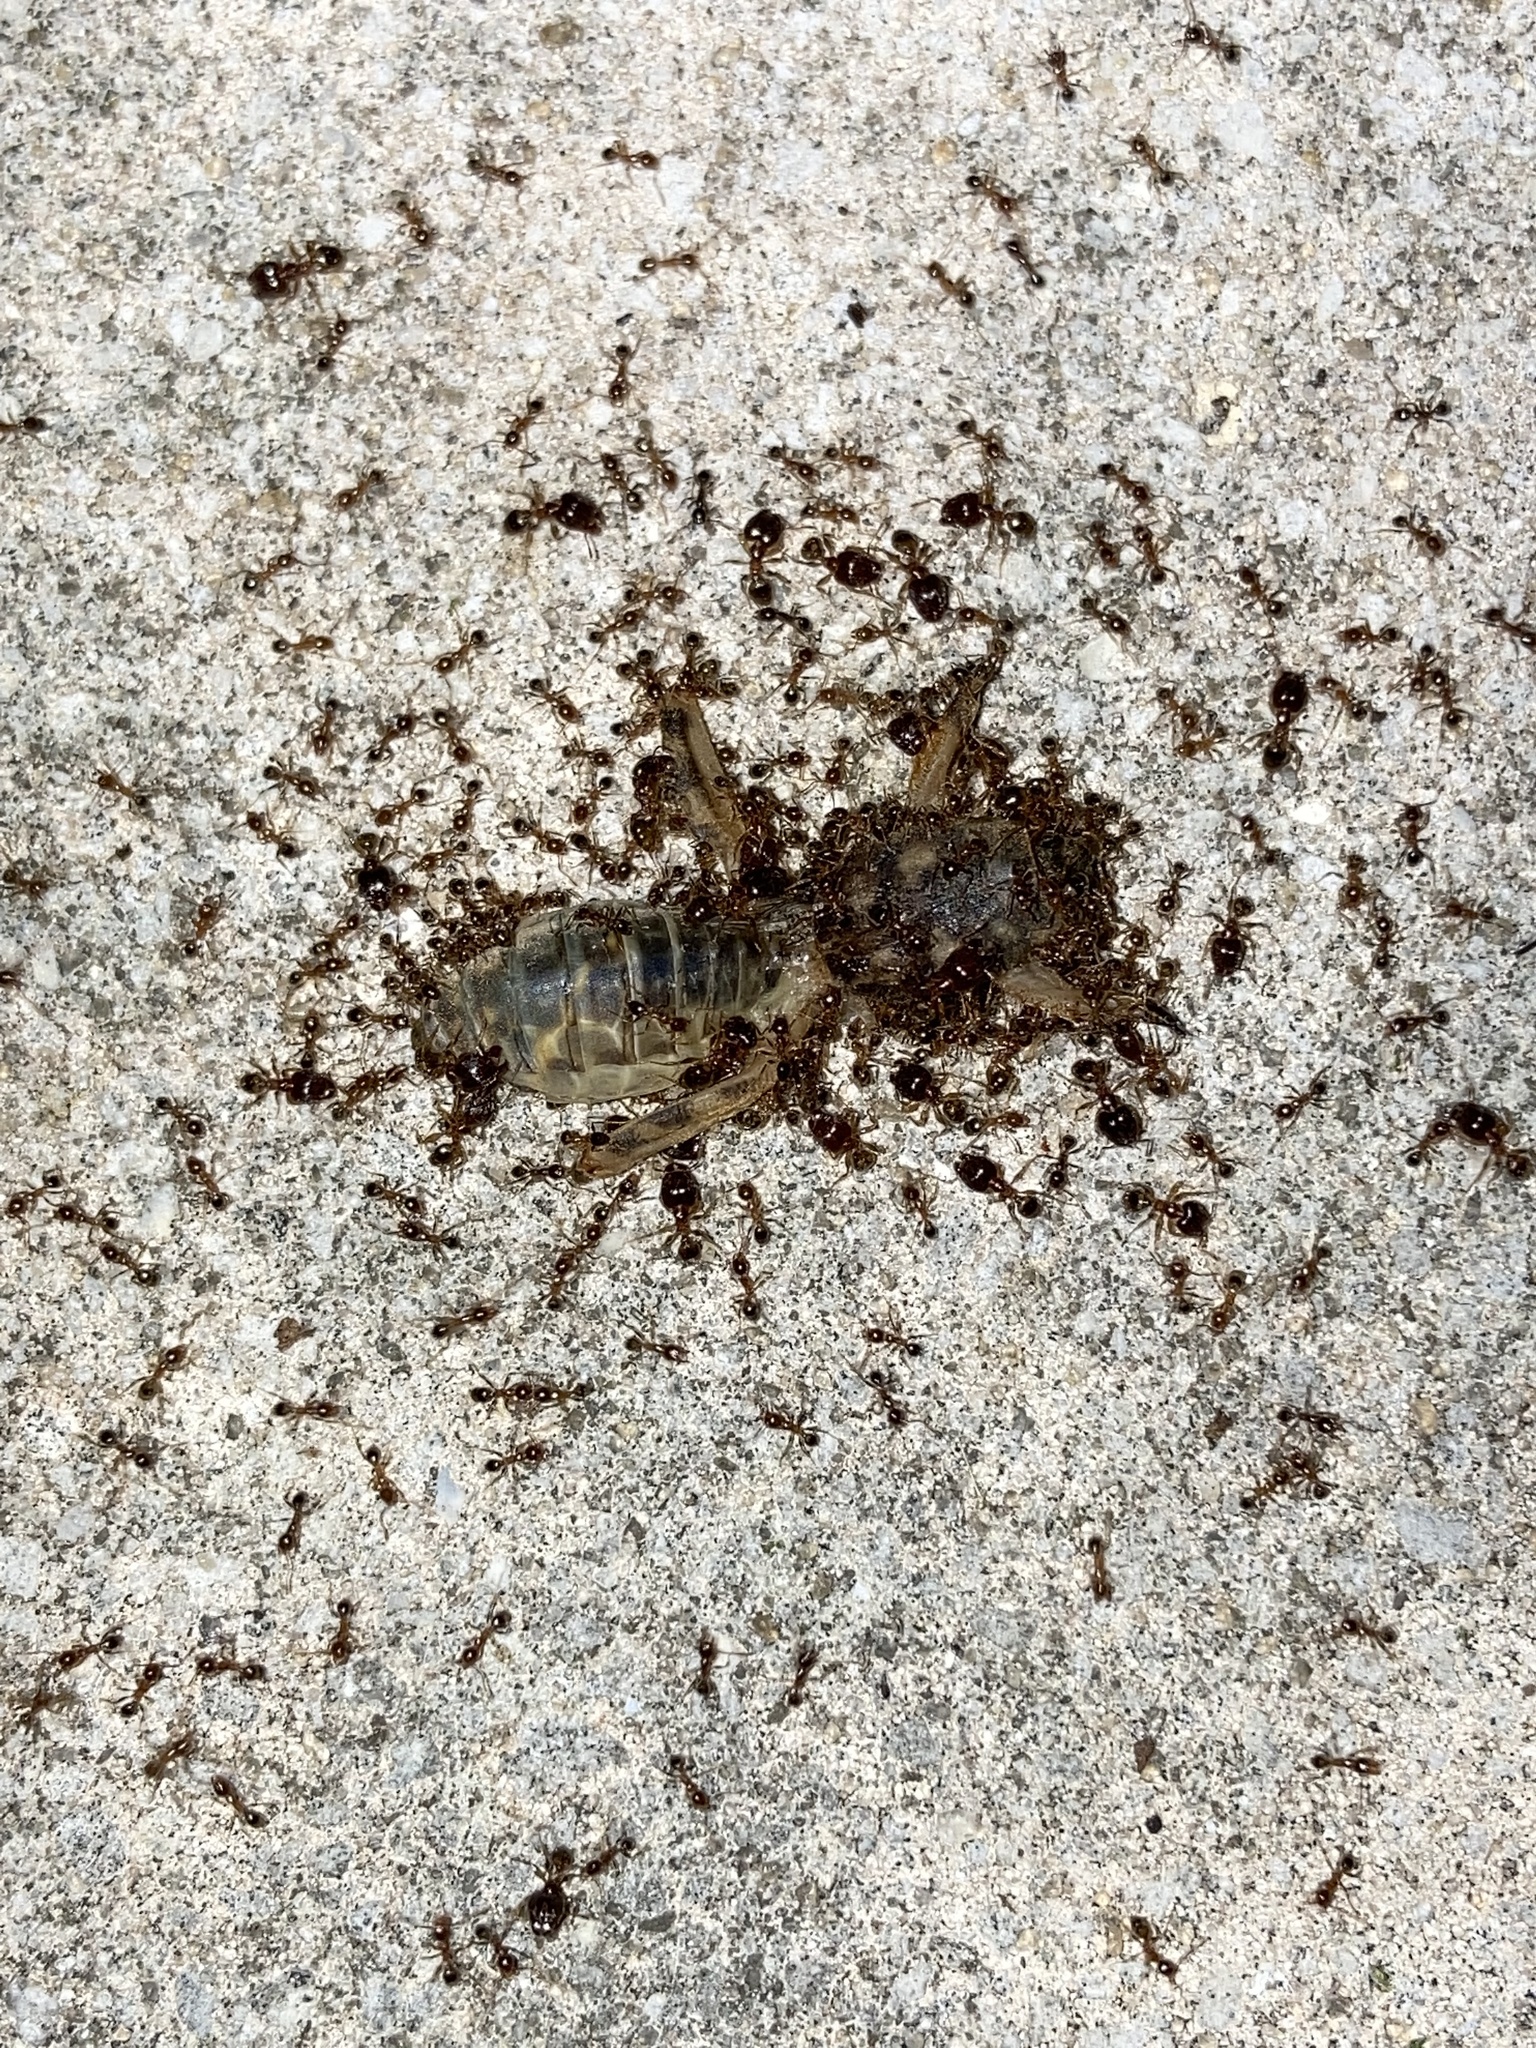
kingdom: Animalia
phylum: Arthropoda
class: Insecta
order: Hymenoptera
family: Formicidae
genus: Pheidole
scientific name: Pheidole megacephala
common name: Bigheaded ant
